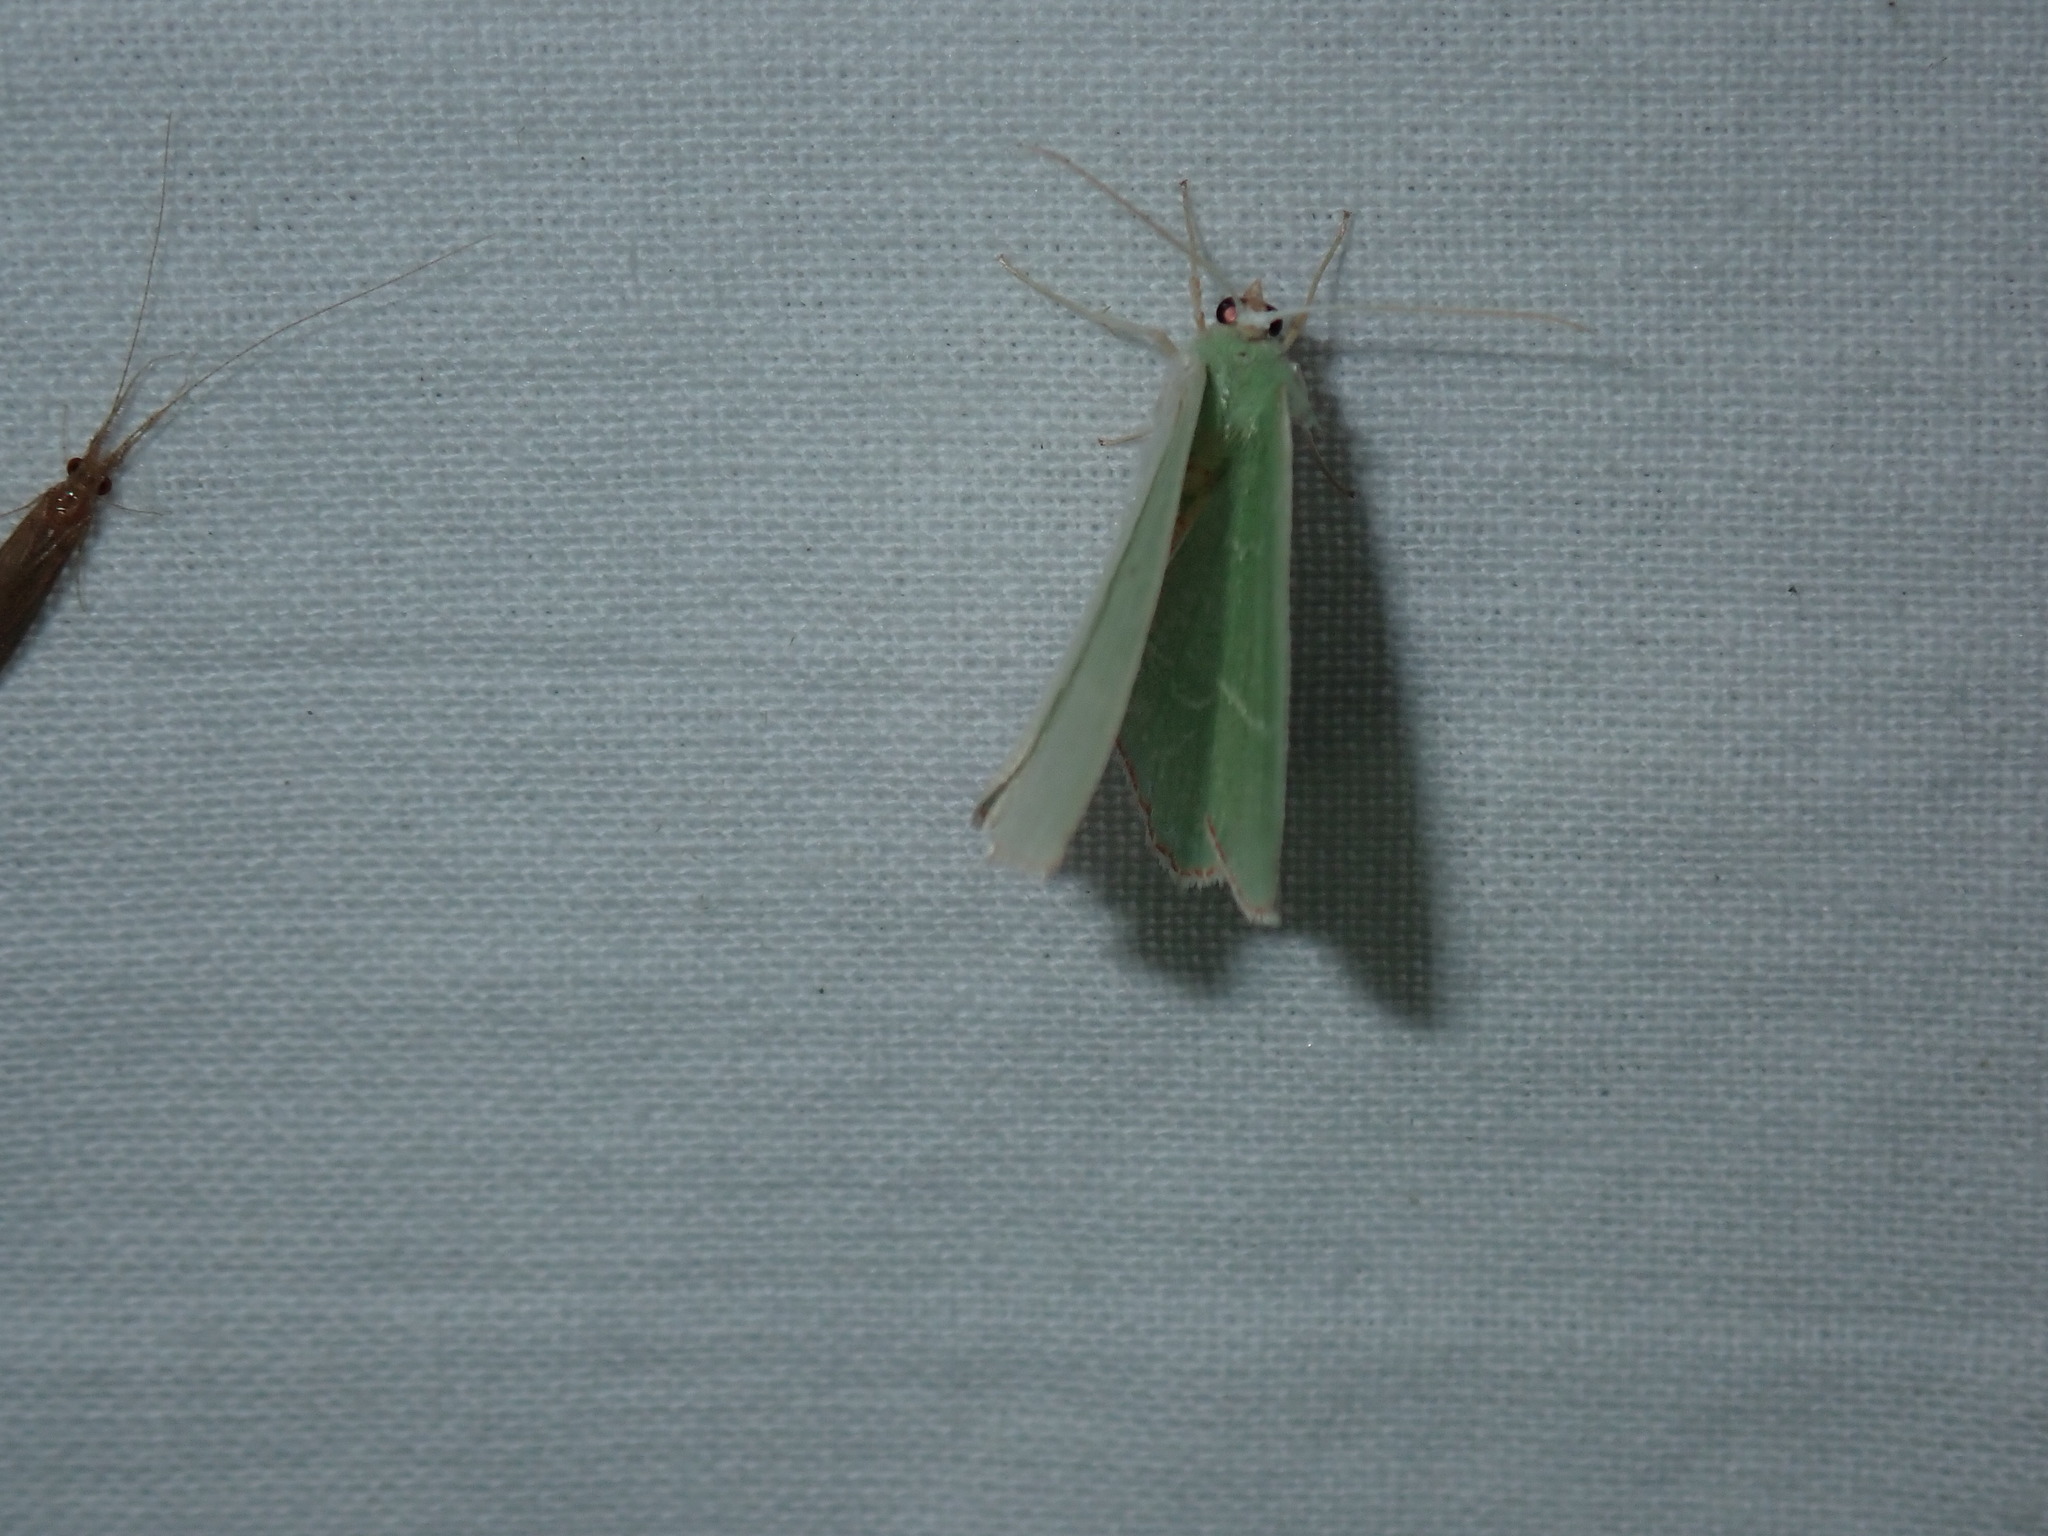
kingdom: Animalia
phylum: Arthropoda
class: Insecta
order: Lepidoptera
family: Geometridae
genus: Nemoria
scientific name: Nemoria bistriaria
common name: Red-fringed emerald
